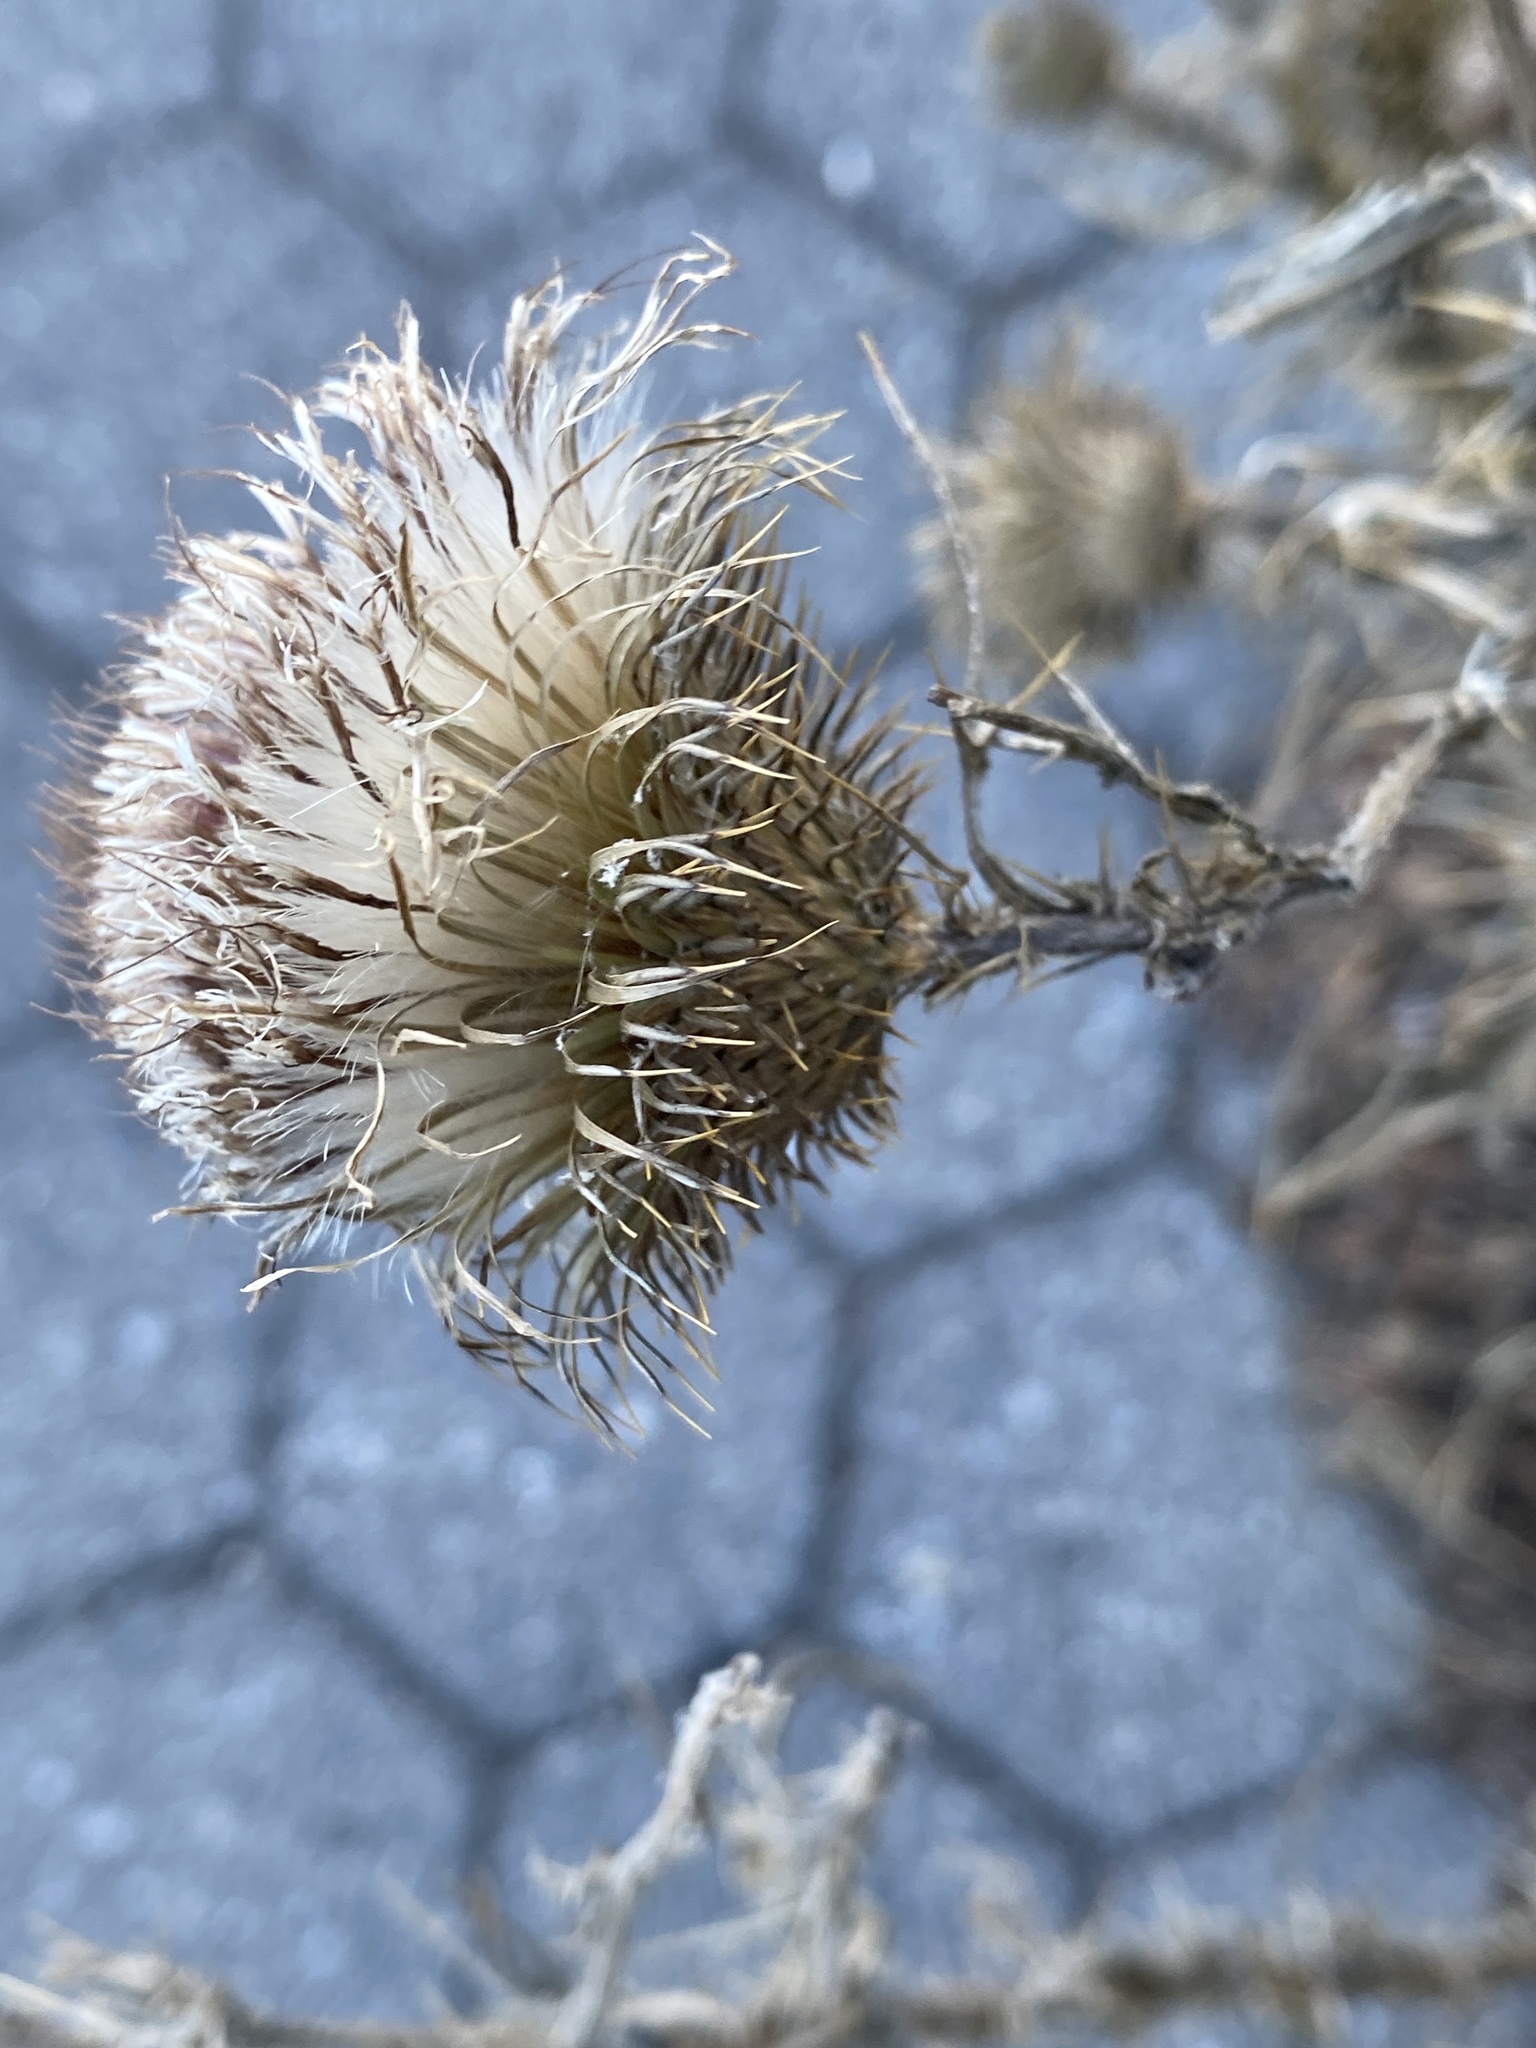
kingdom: Plantae
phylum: Tracheophyta
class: Magnoliopsida
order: Asterales
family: Asteraceae
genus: Cirsium
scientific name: Cirsium vulgare
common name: Bull thistle
